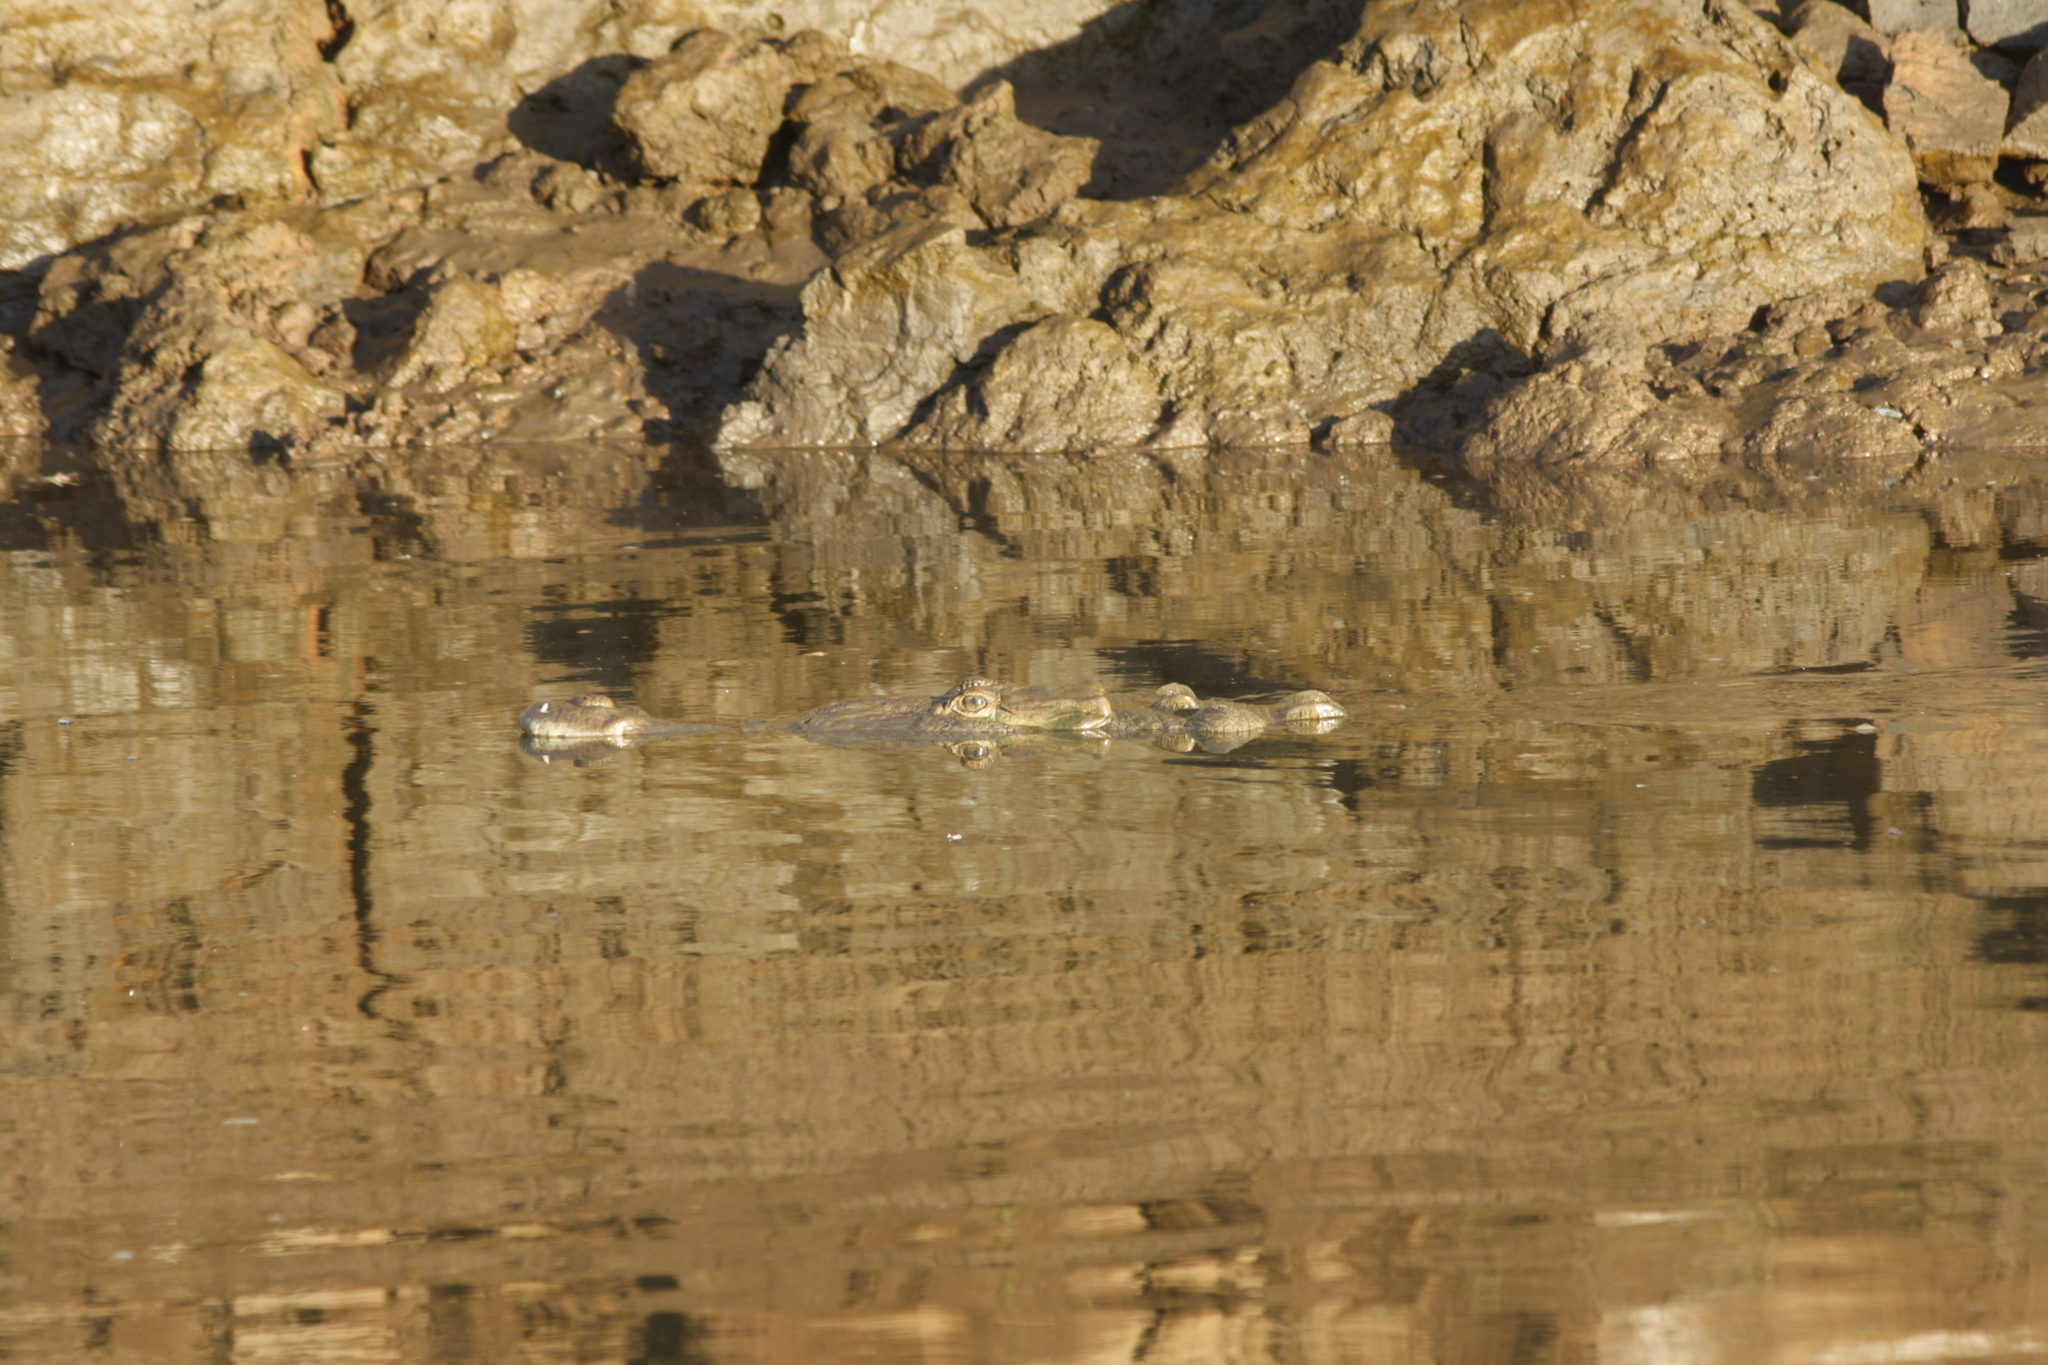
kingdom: Animalia
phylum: Chordata
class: Crocodylia
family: Crocodylidae
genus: Crocodylus
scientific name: Crocodylus acutus
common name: American crocodile
